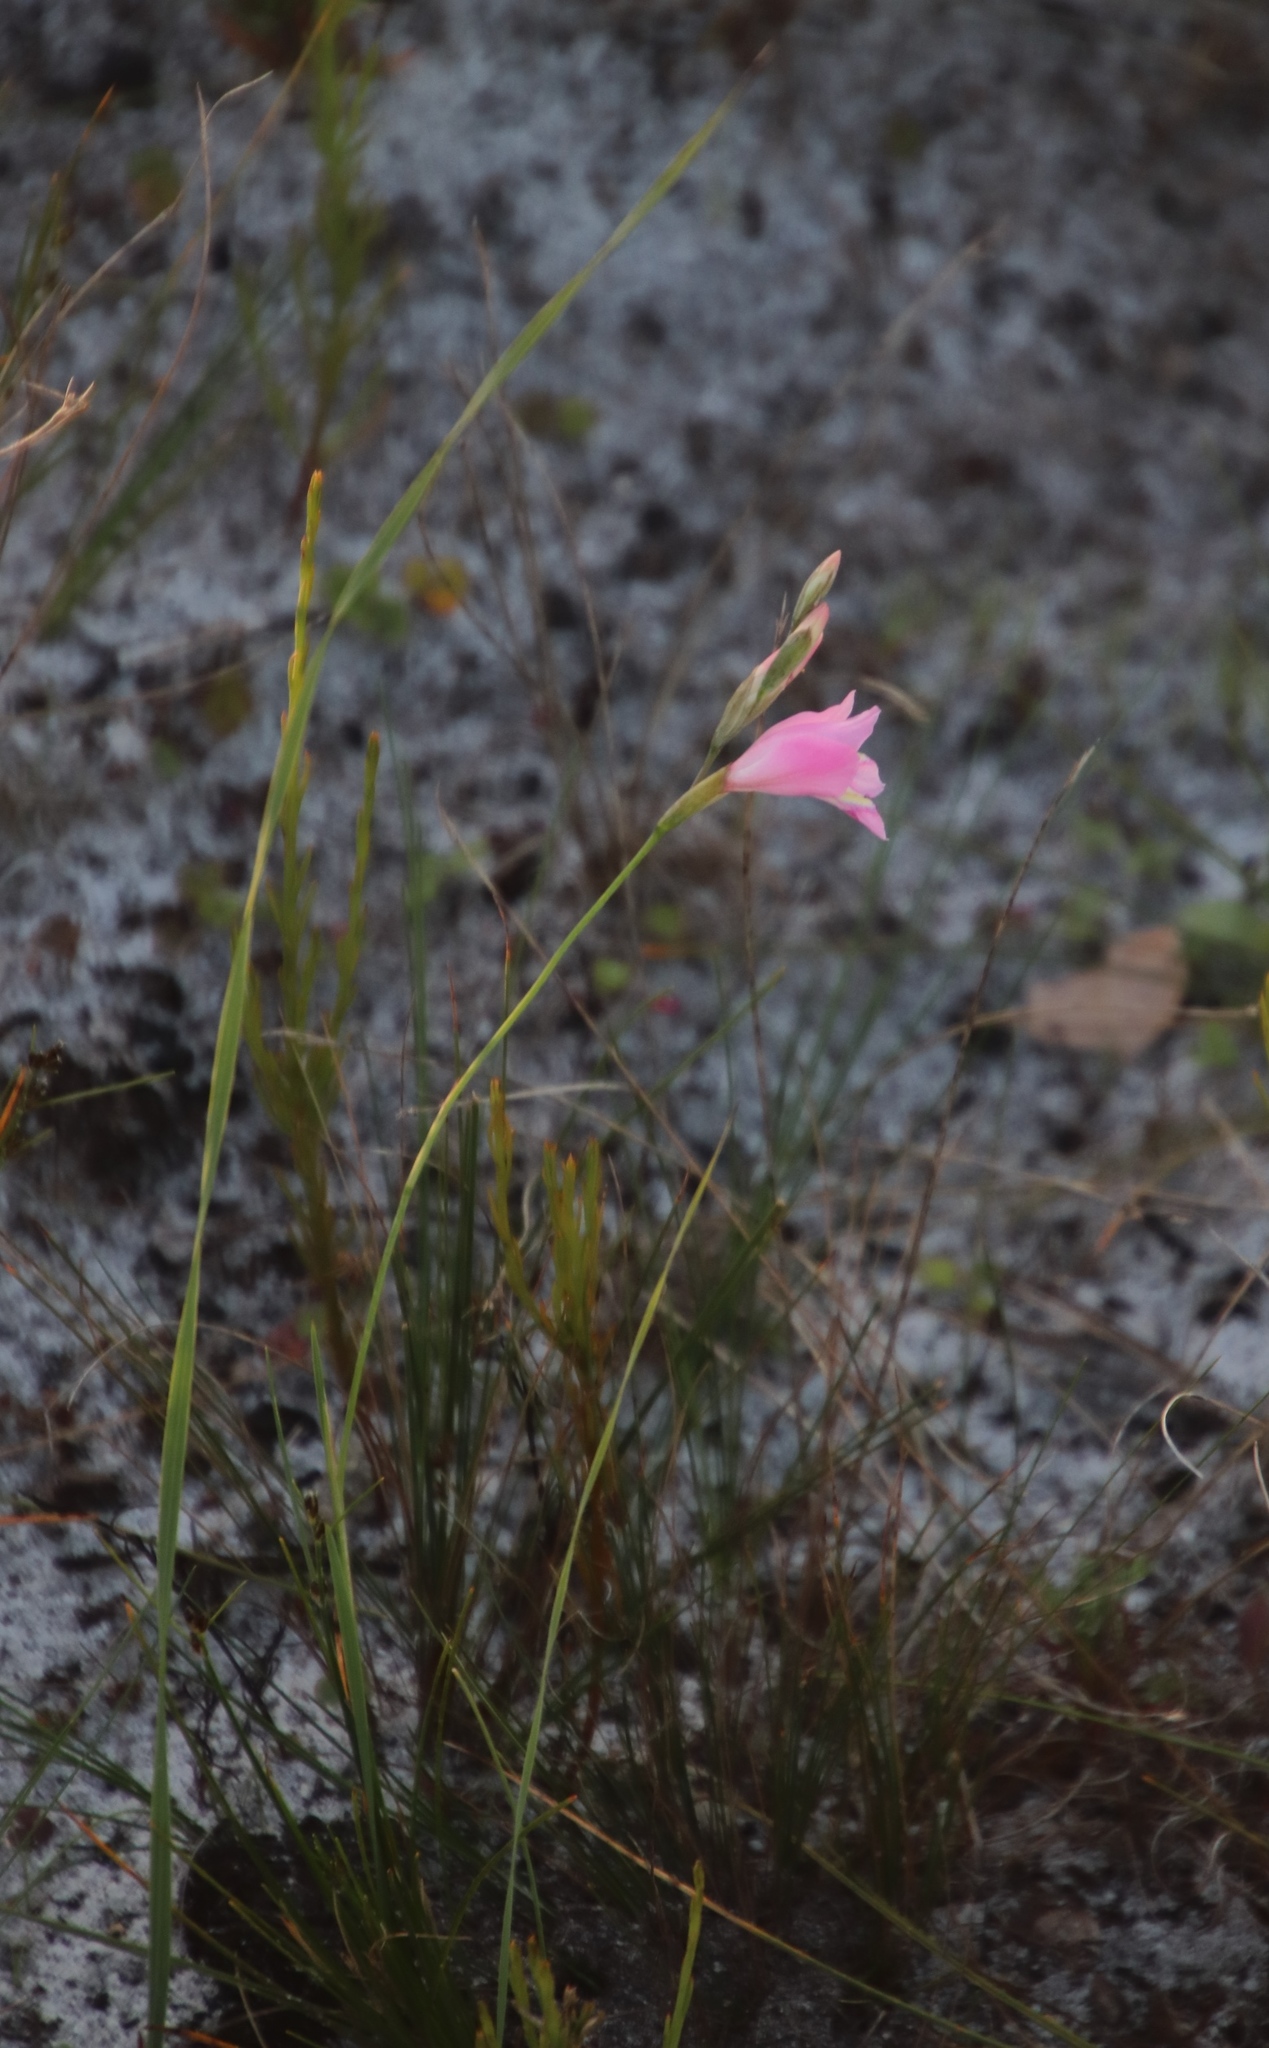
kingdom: Plantae
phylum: Tracheophyta
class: Liliopsida
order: Asparagales
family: Iridaceae
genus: Gladiolus
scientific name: Gladiolus carinatus
